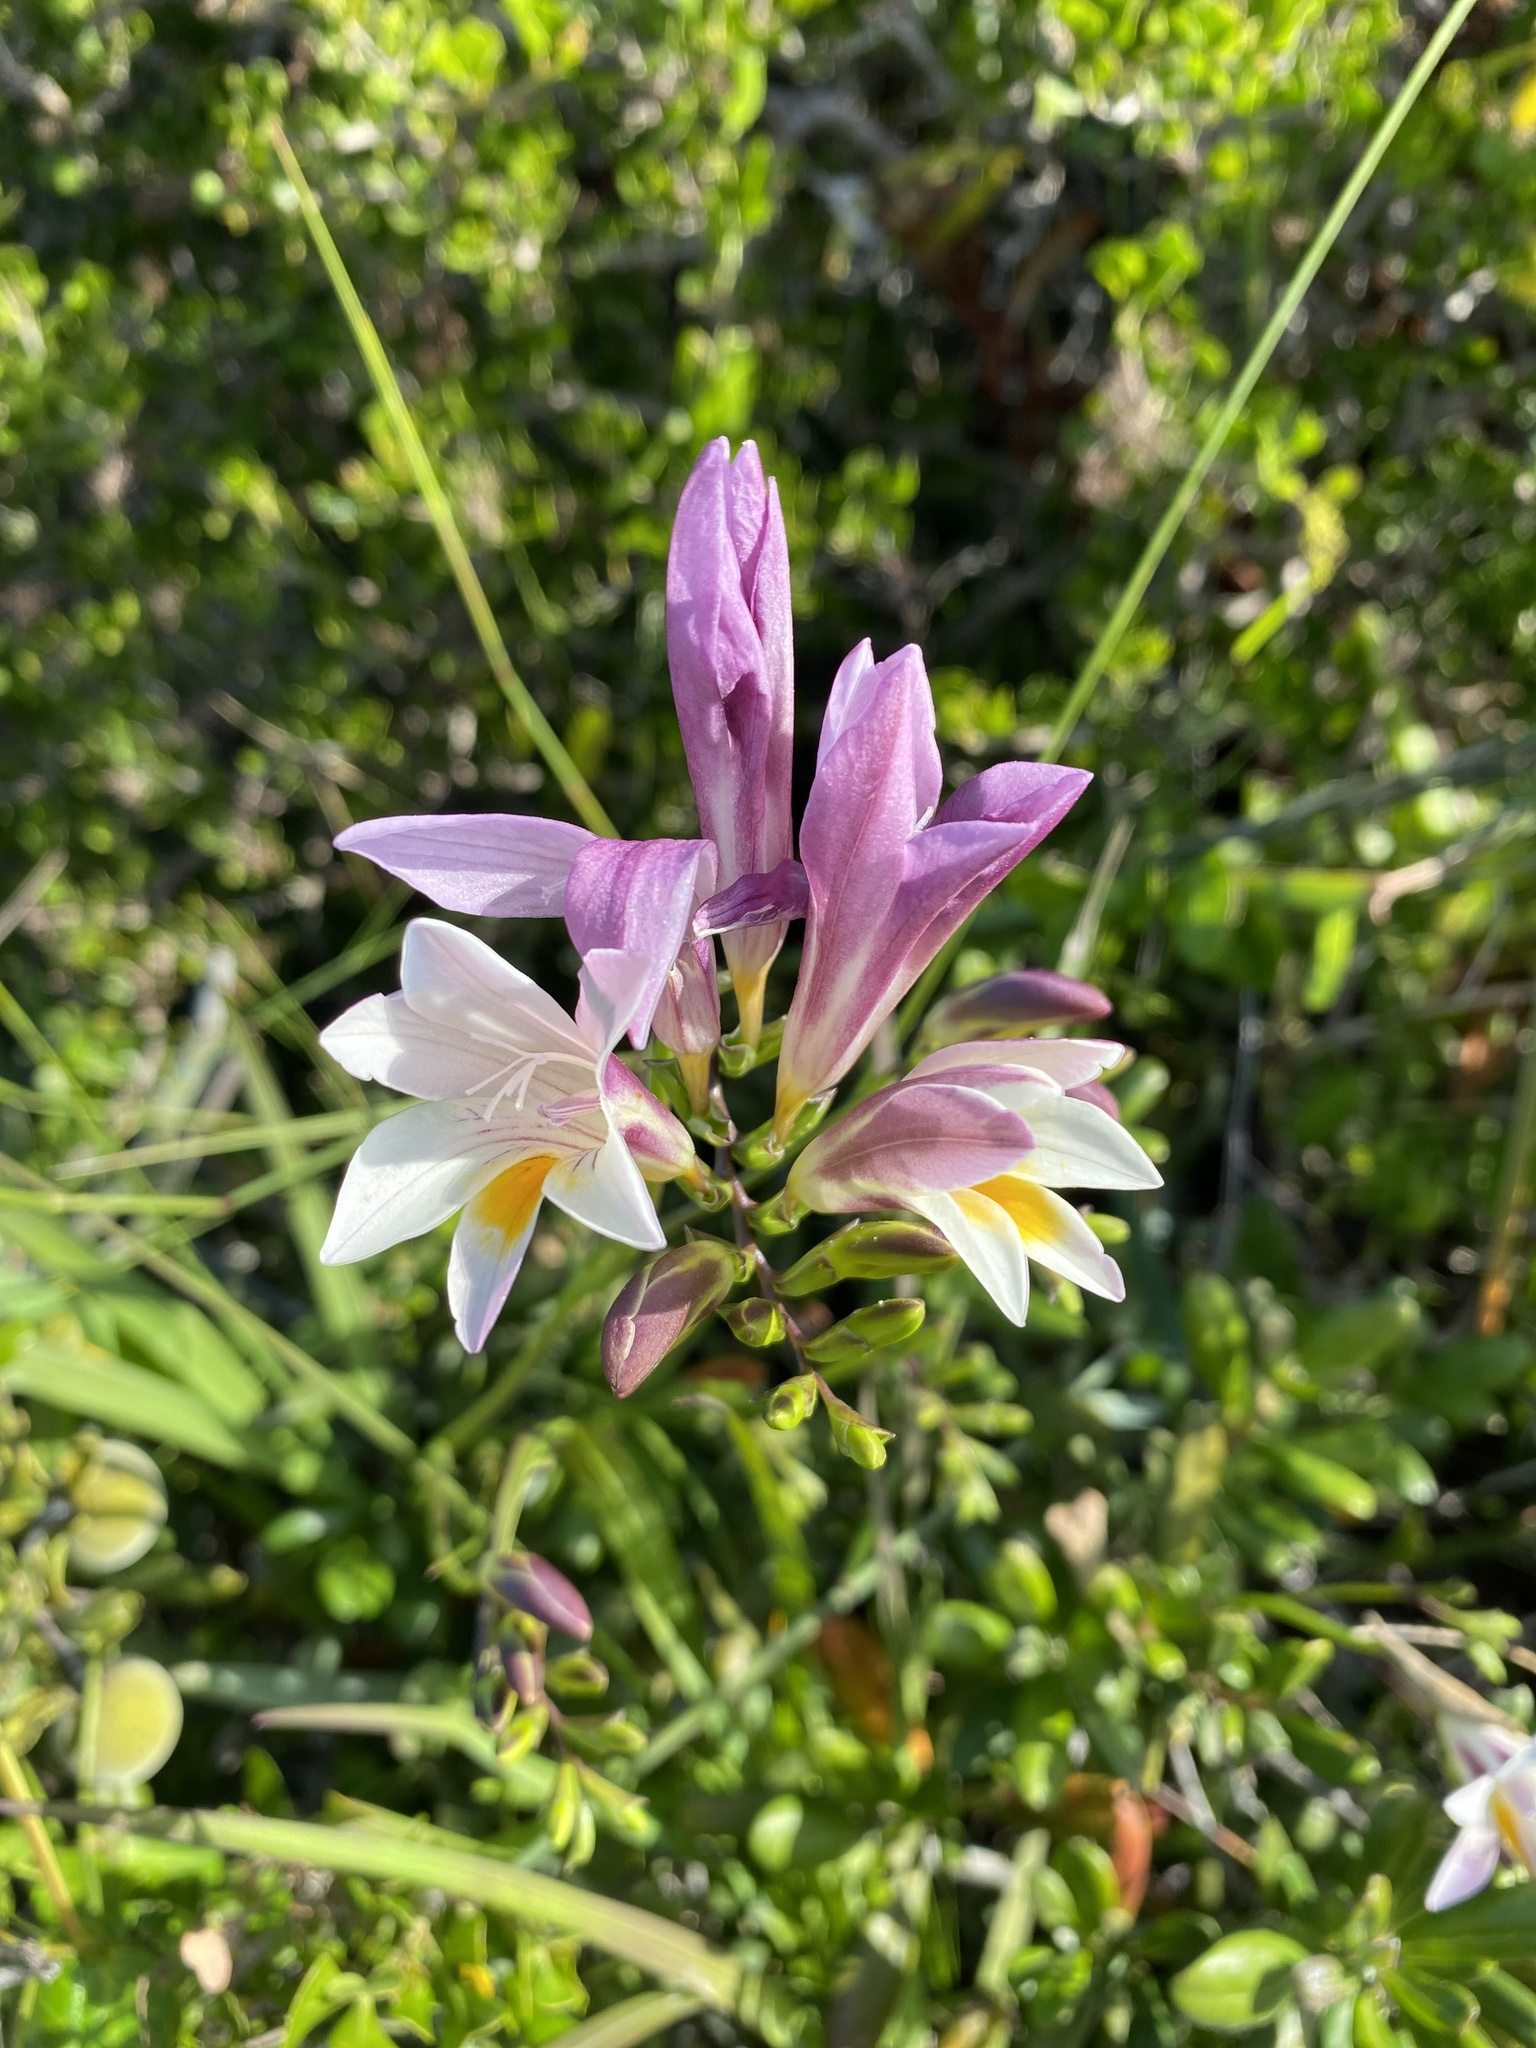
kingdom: Plantae
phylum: Tracheophyta
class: Liliopsida
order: Asparagales
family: Iridaceae
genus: Freesia
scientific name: Freesia leichtlinii
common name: Freesia
